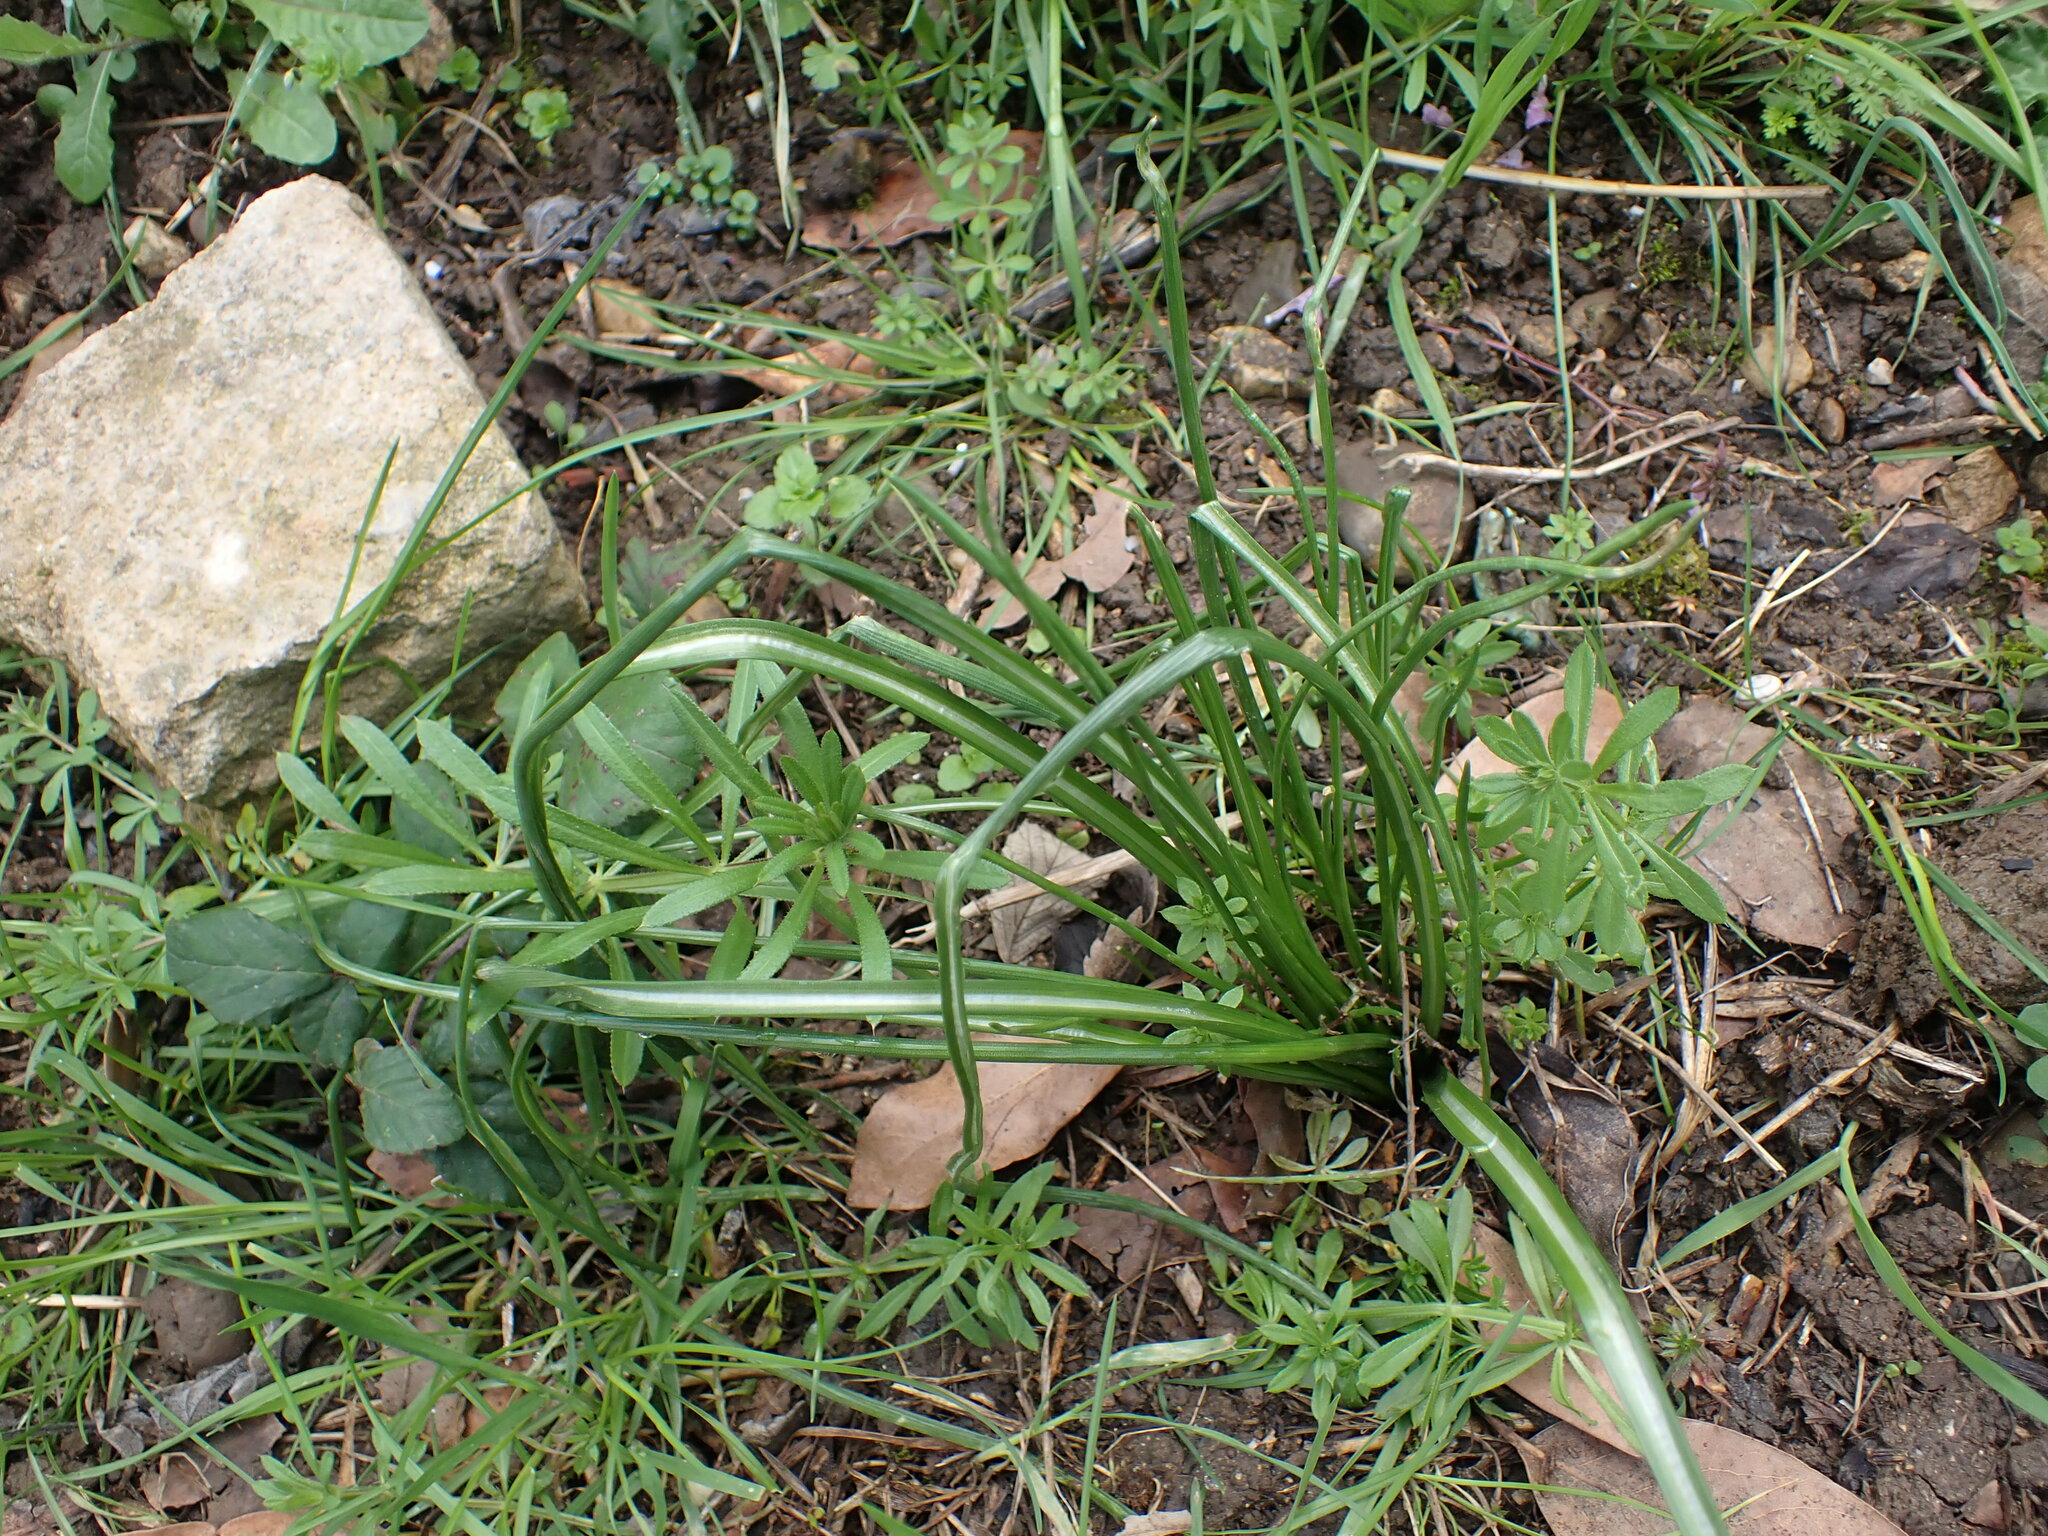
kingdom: Plantae
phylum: Tracheophyta
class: Liliopsida
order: Asparagales
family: Asparagaceae
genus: Ornithogalum
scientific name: Ornithogalum divergens
